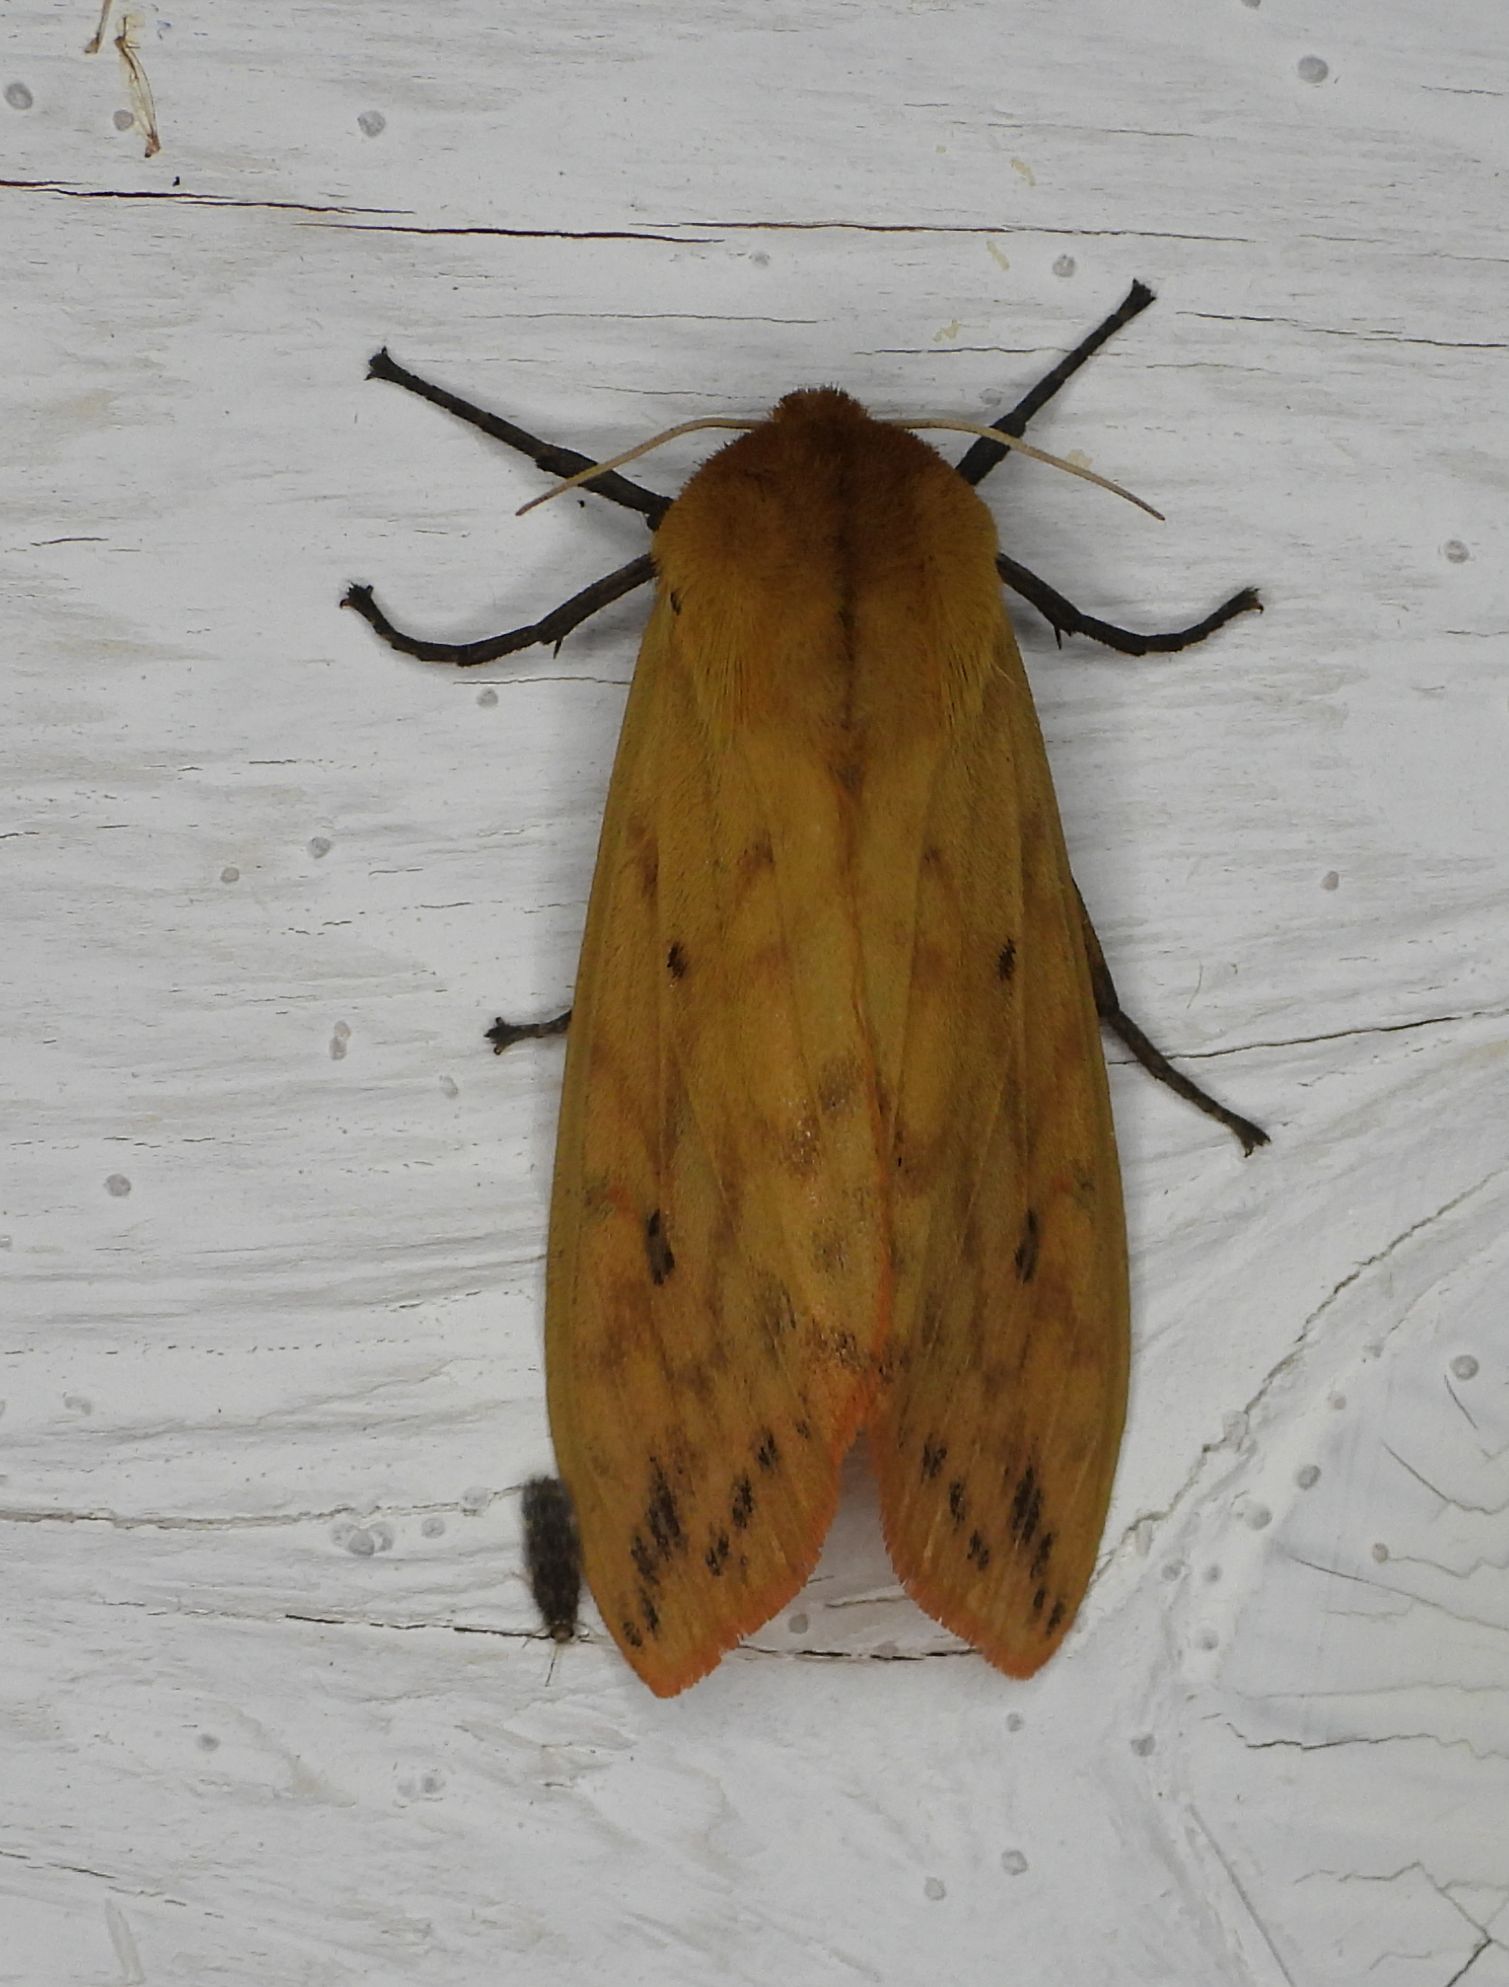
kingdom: Animalia
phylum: Arthropoda
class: Insecta
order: Lepidoptera
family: Erebidae
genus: Pyrrharctia
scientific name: Pyrrharctia isabella
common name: Isabella tiger moth
